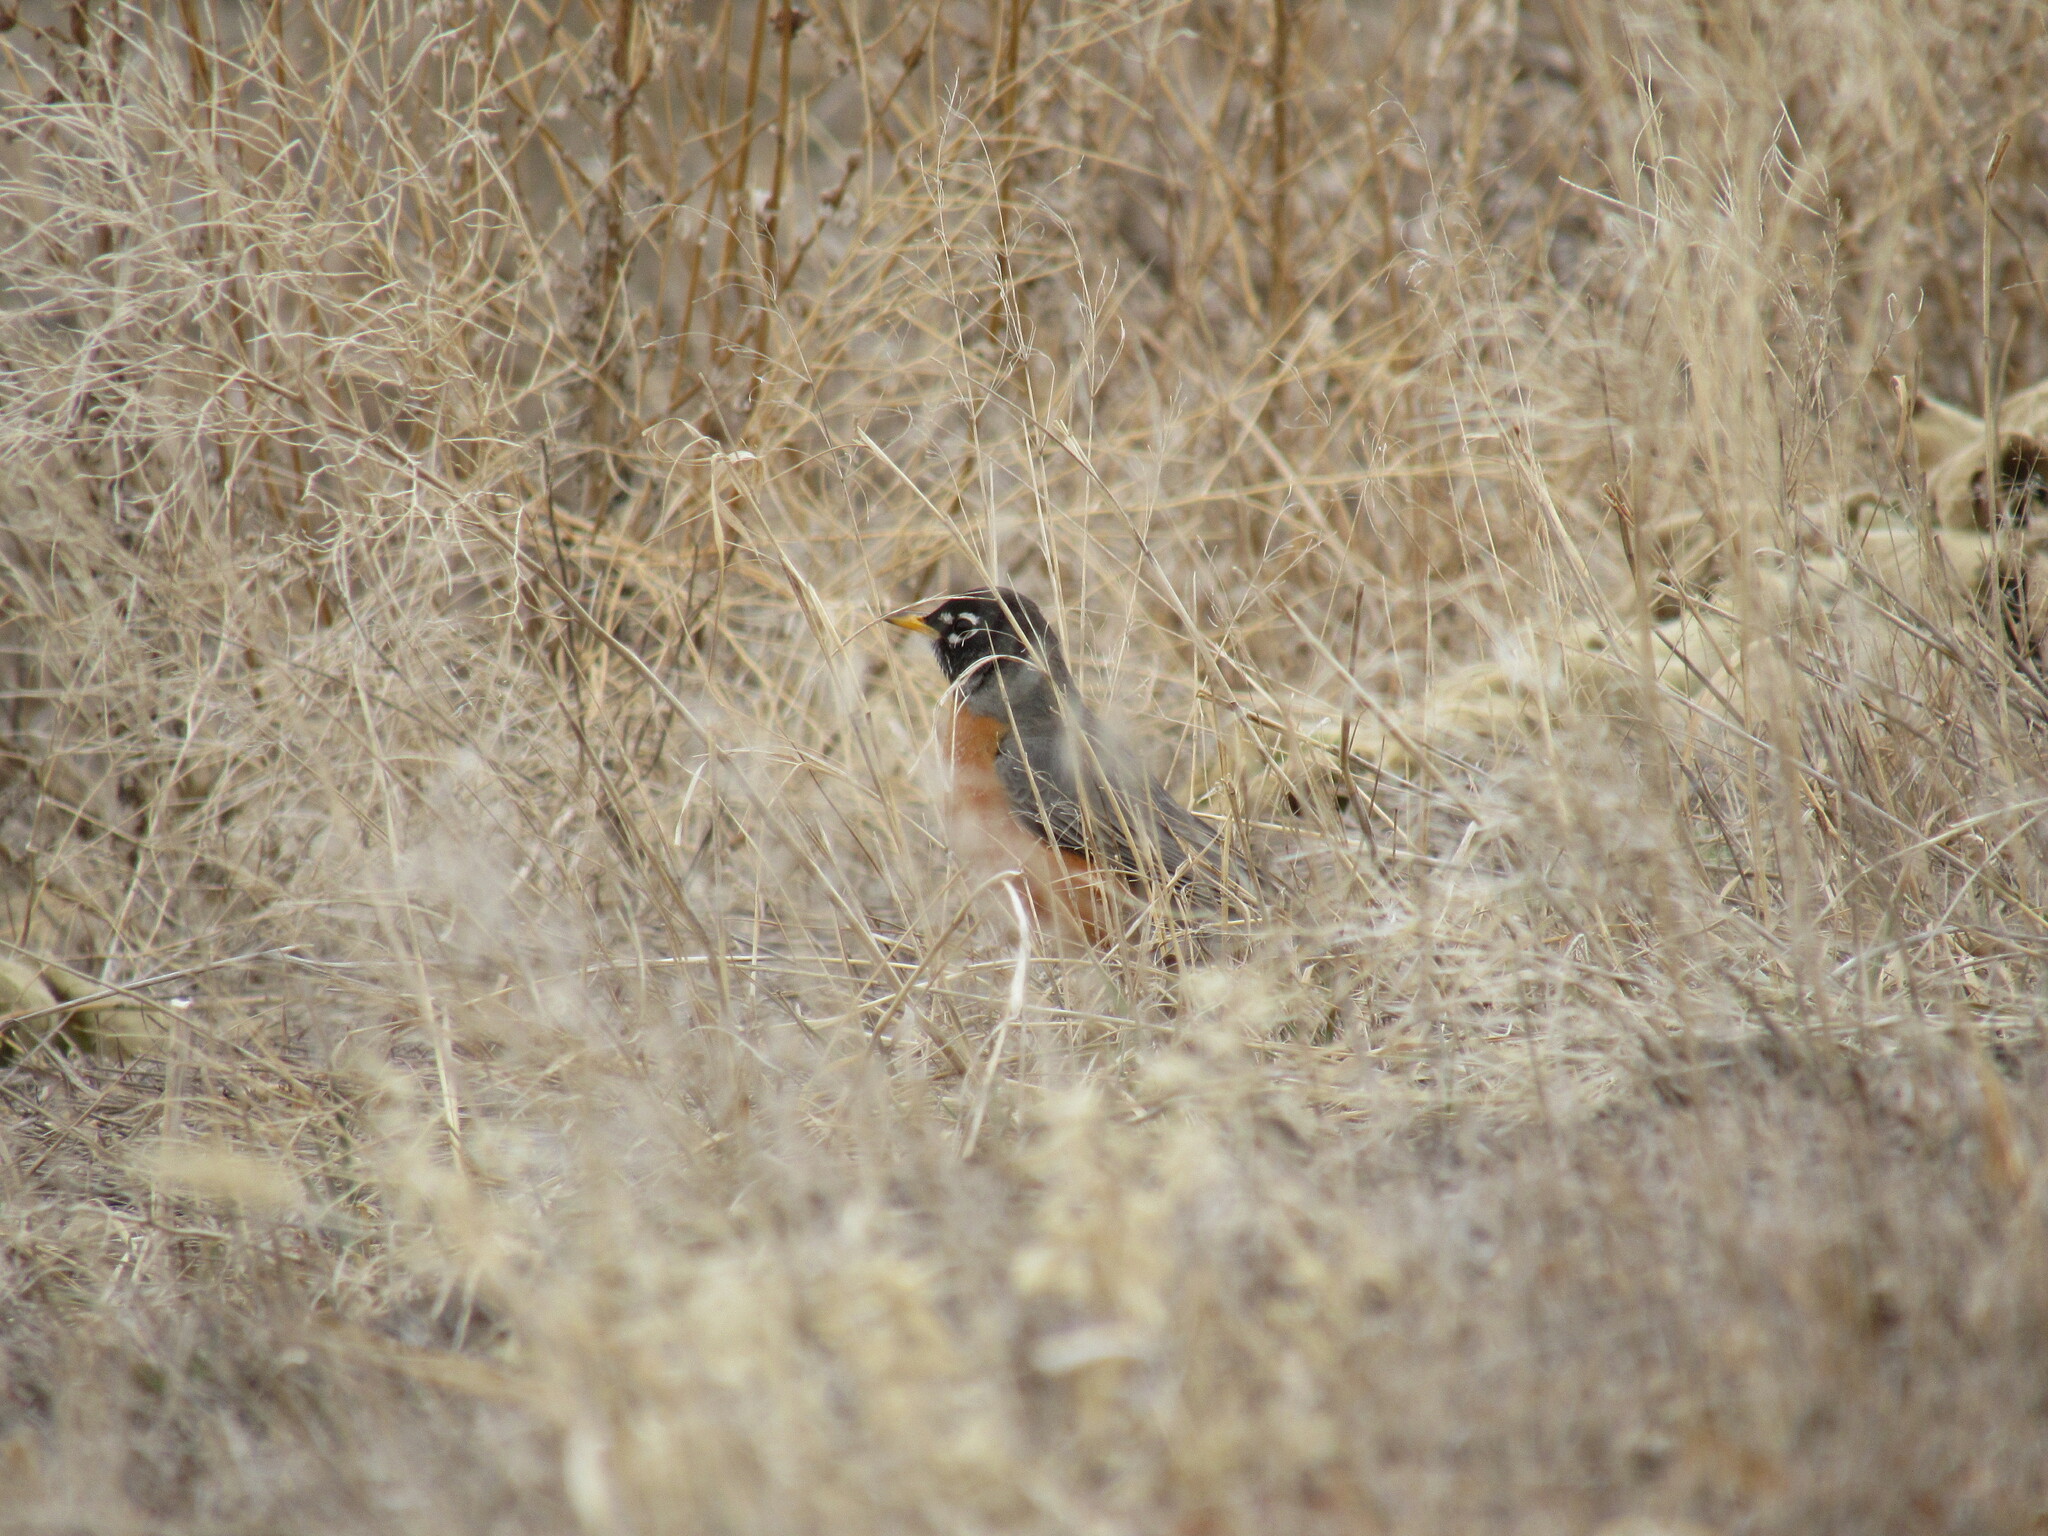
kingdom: Animalia
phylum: Chordata
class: Aves
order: Passeriformes
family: Turdidae
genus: Turdus
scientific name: Turdus migratorius
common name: American robin
